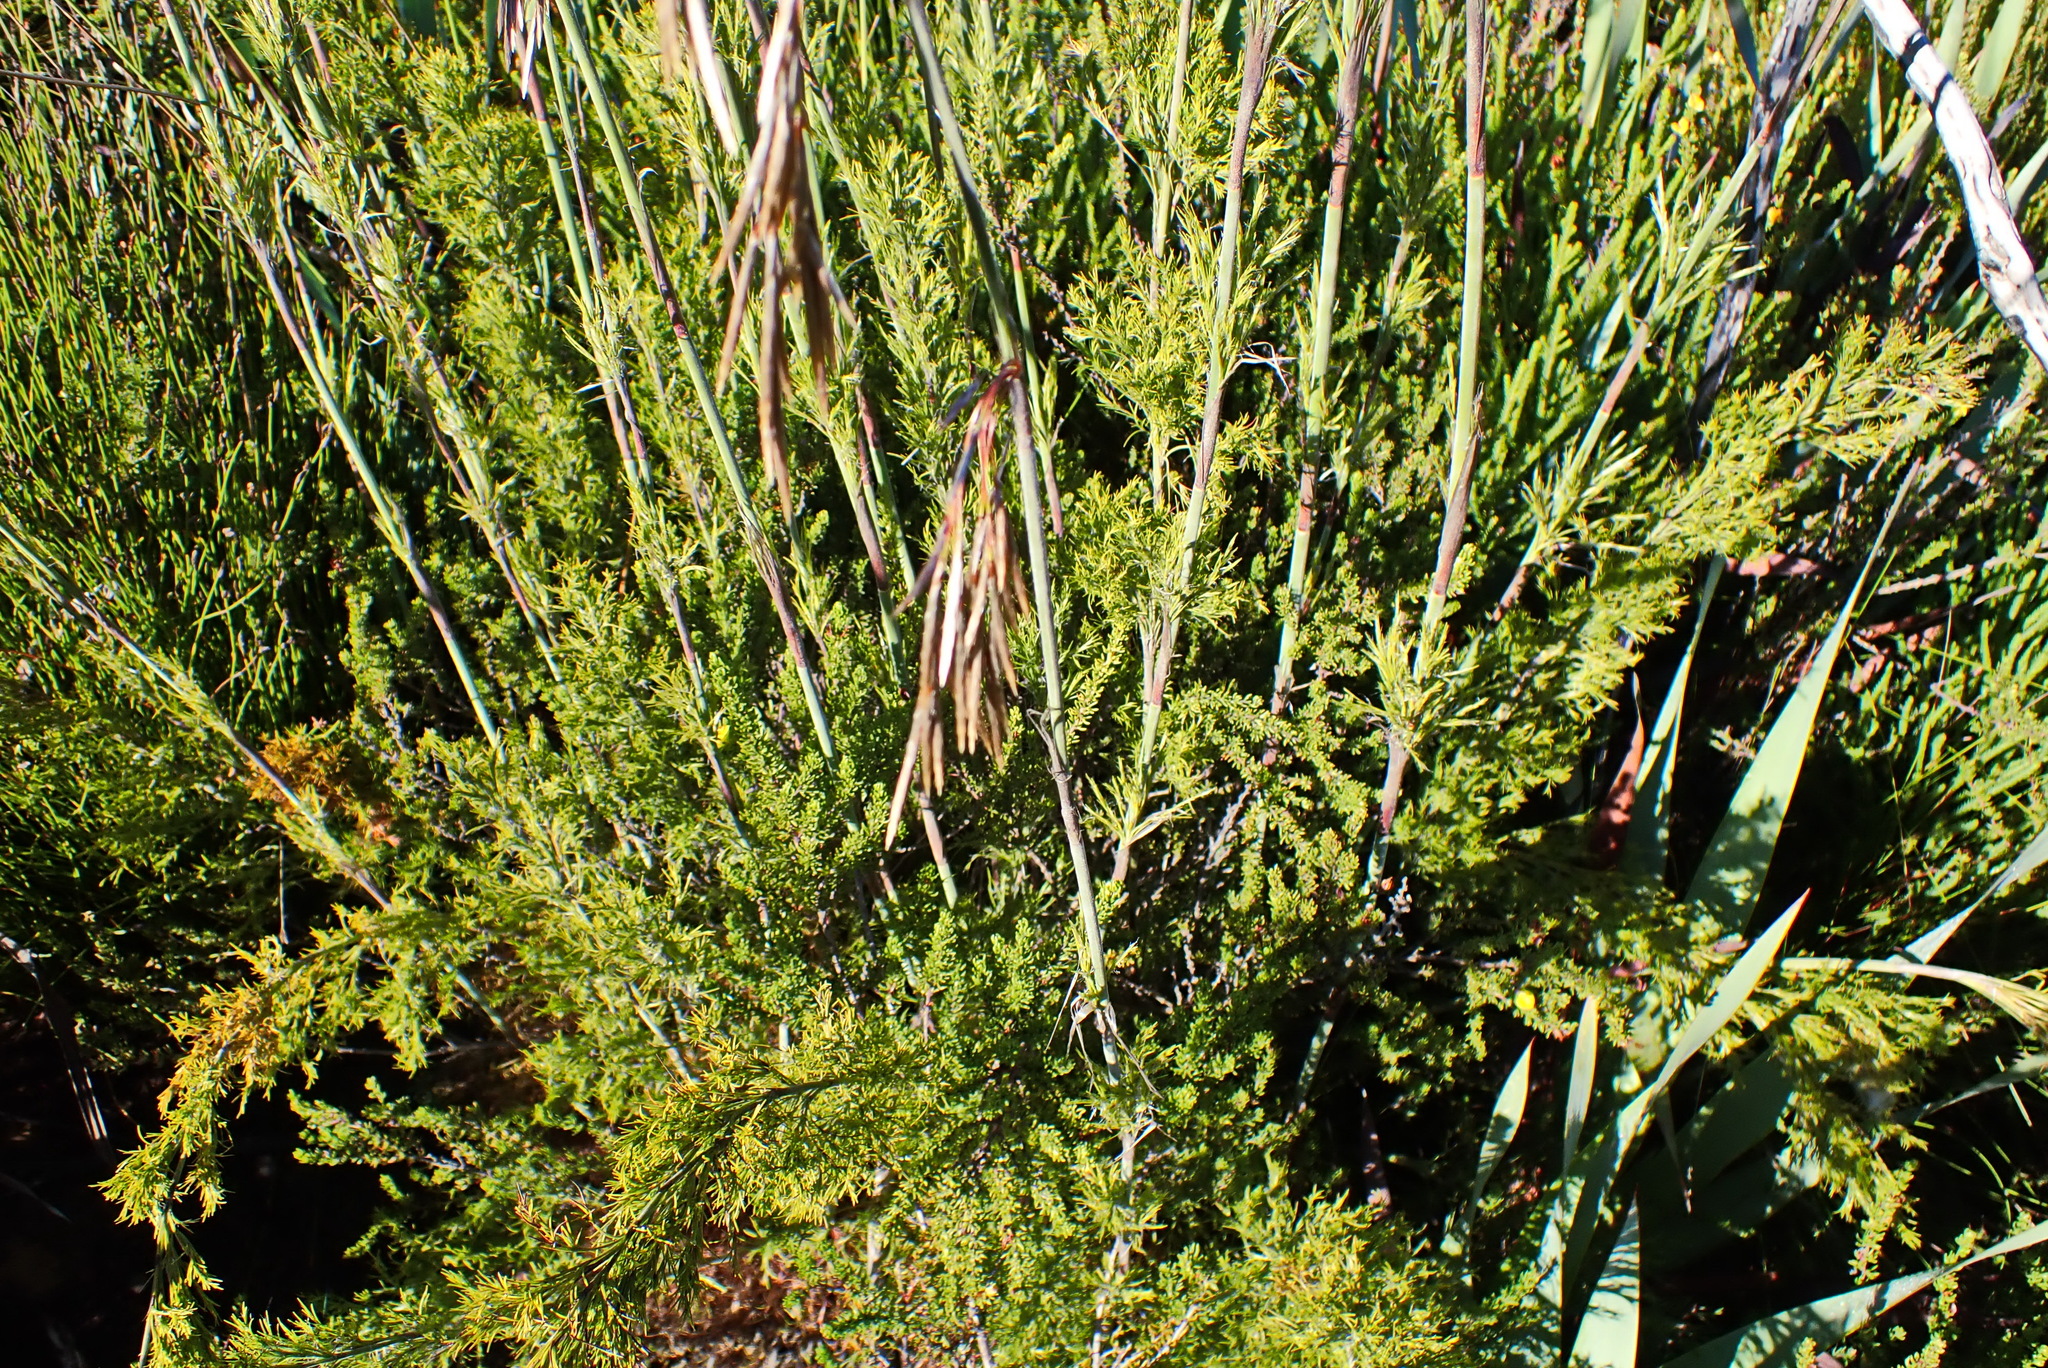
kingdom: Plantae
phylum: Tracheophyta
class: Liliopsida
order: Poales
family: Restionaceae
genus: Thamnochortus
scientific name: Thamnochortus cinereus
